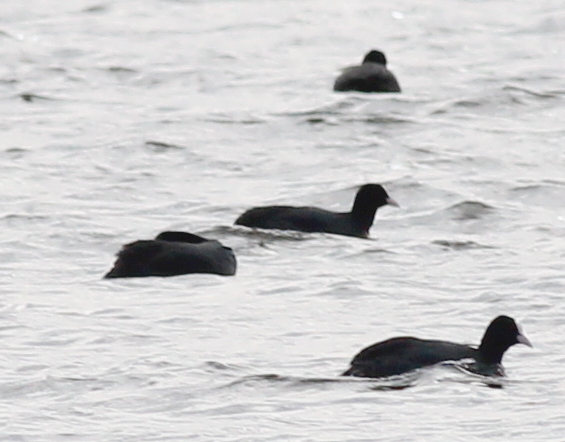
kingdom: Animalia
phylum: Chordata
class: Aves
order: Gruiformes
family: Rallidae
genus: Fulica
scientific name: Fulica atra
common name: Eurasian coot
